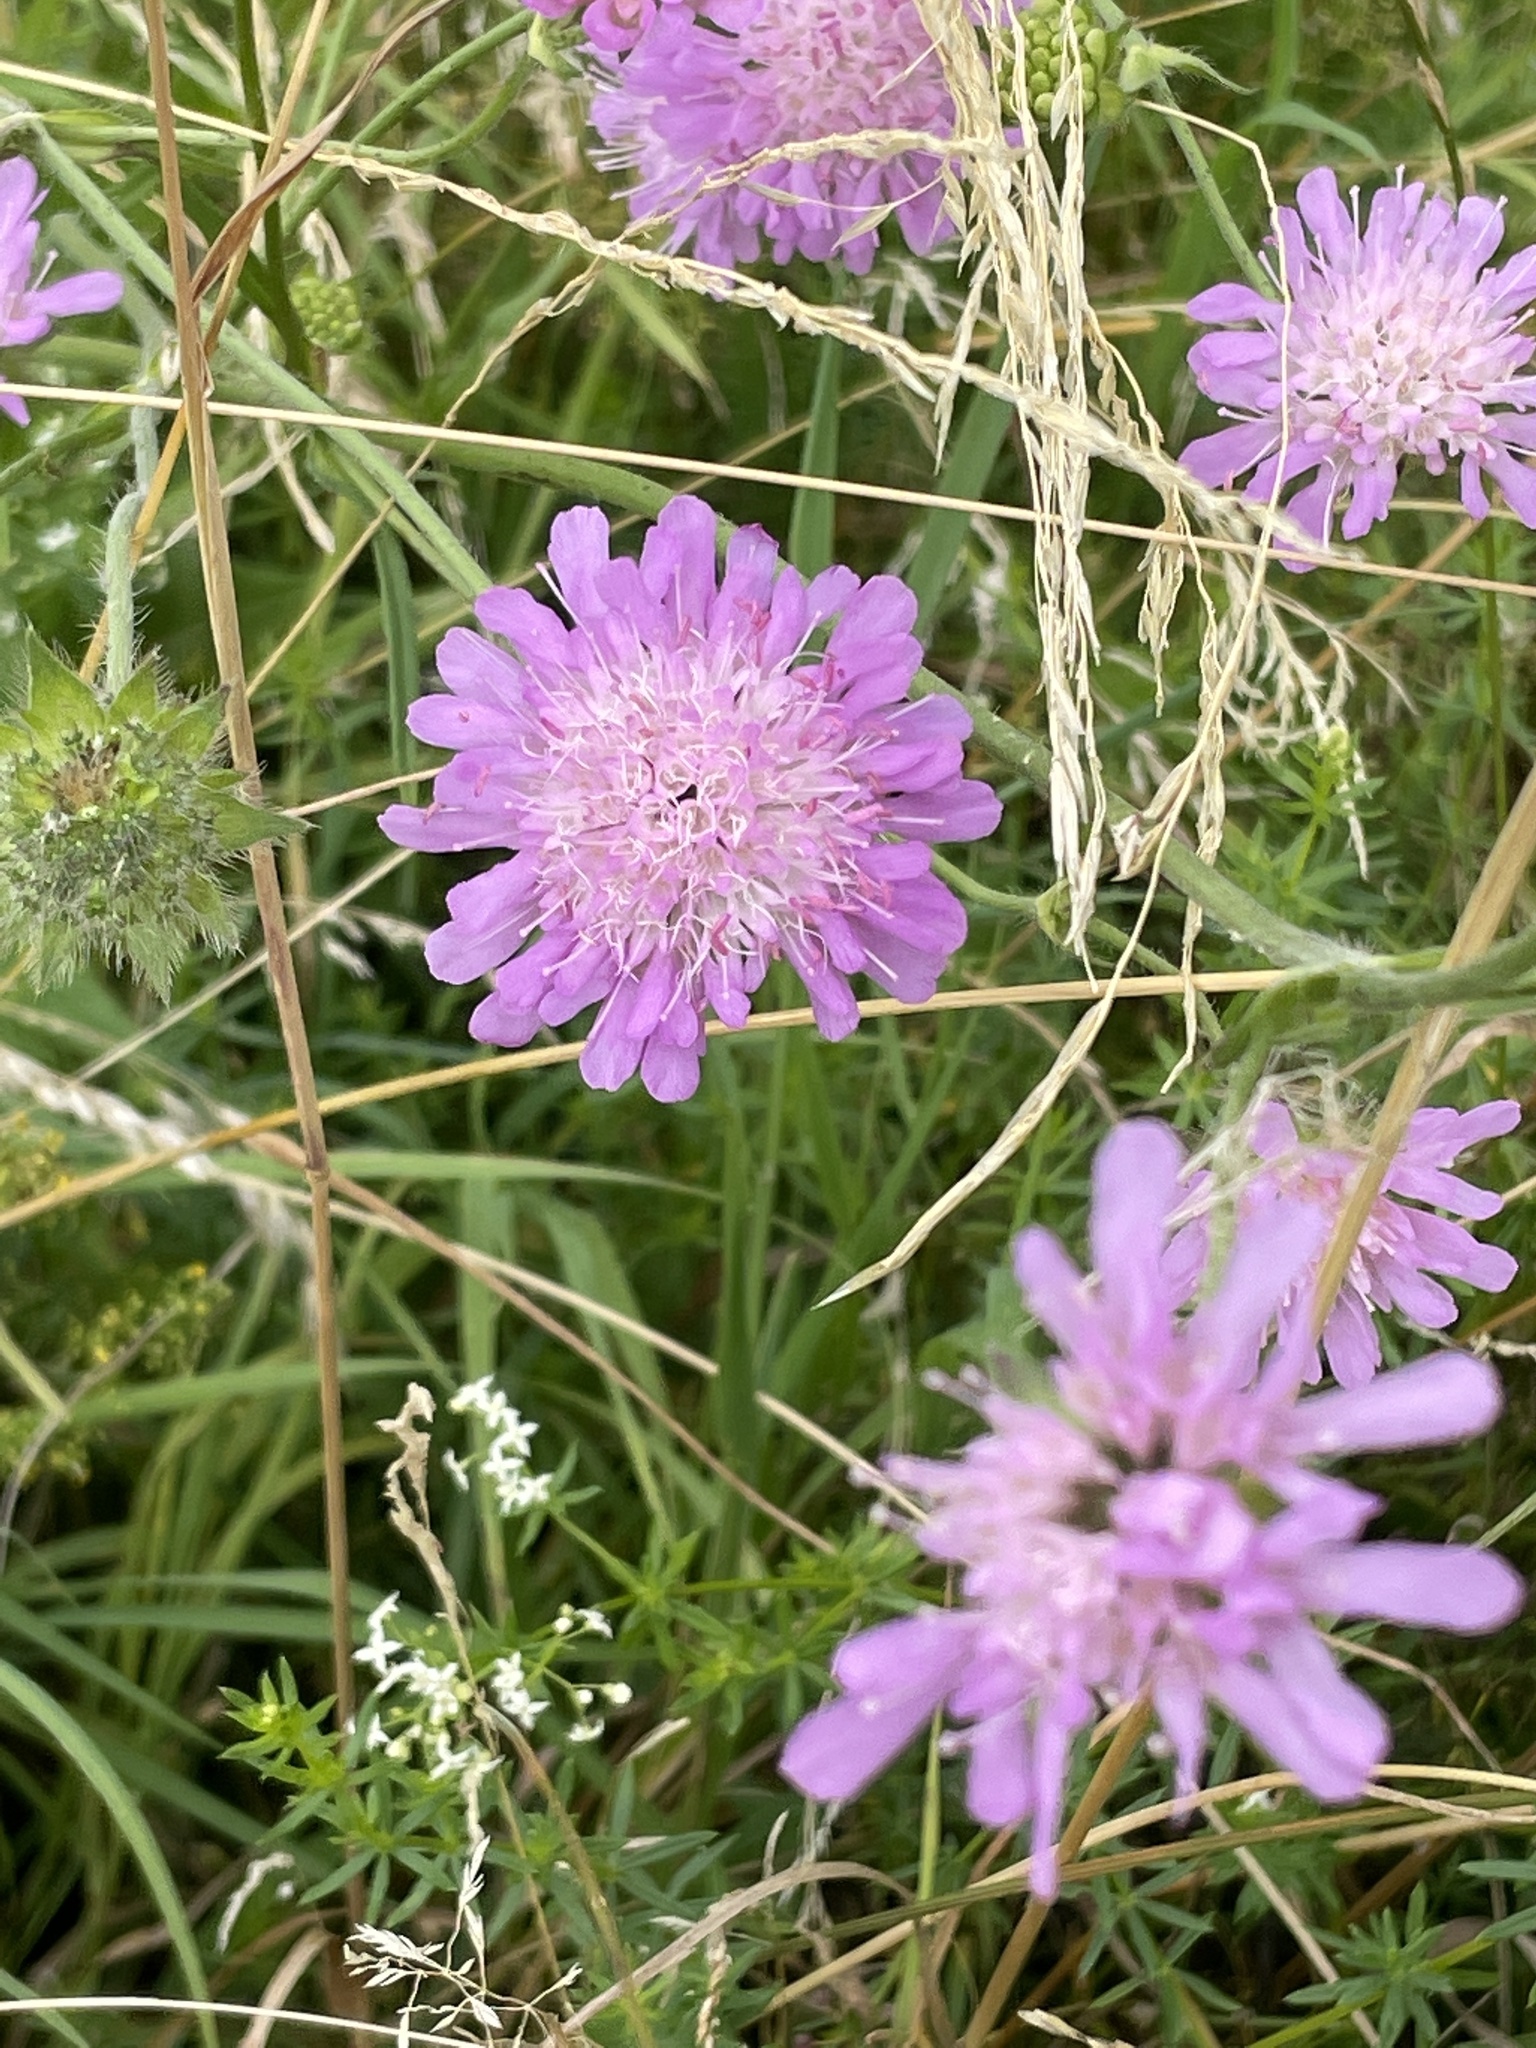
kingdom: Plantae
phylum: Tracheophyta
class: Magnoliopsida
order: Dipsacales
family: Caprifoliaceae
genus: Knautia
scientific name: Knautia arvensis
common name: Field scabiosa
